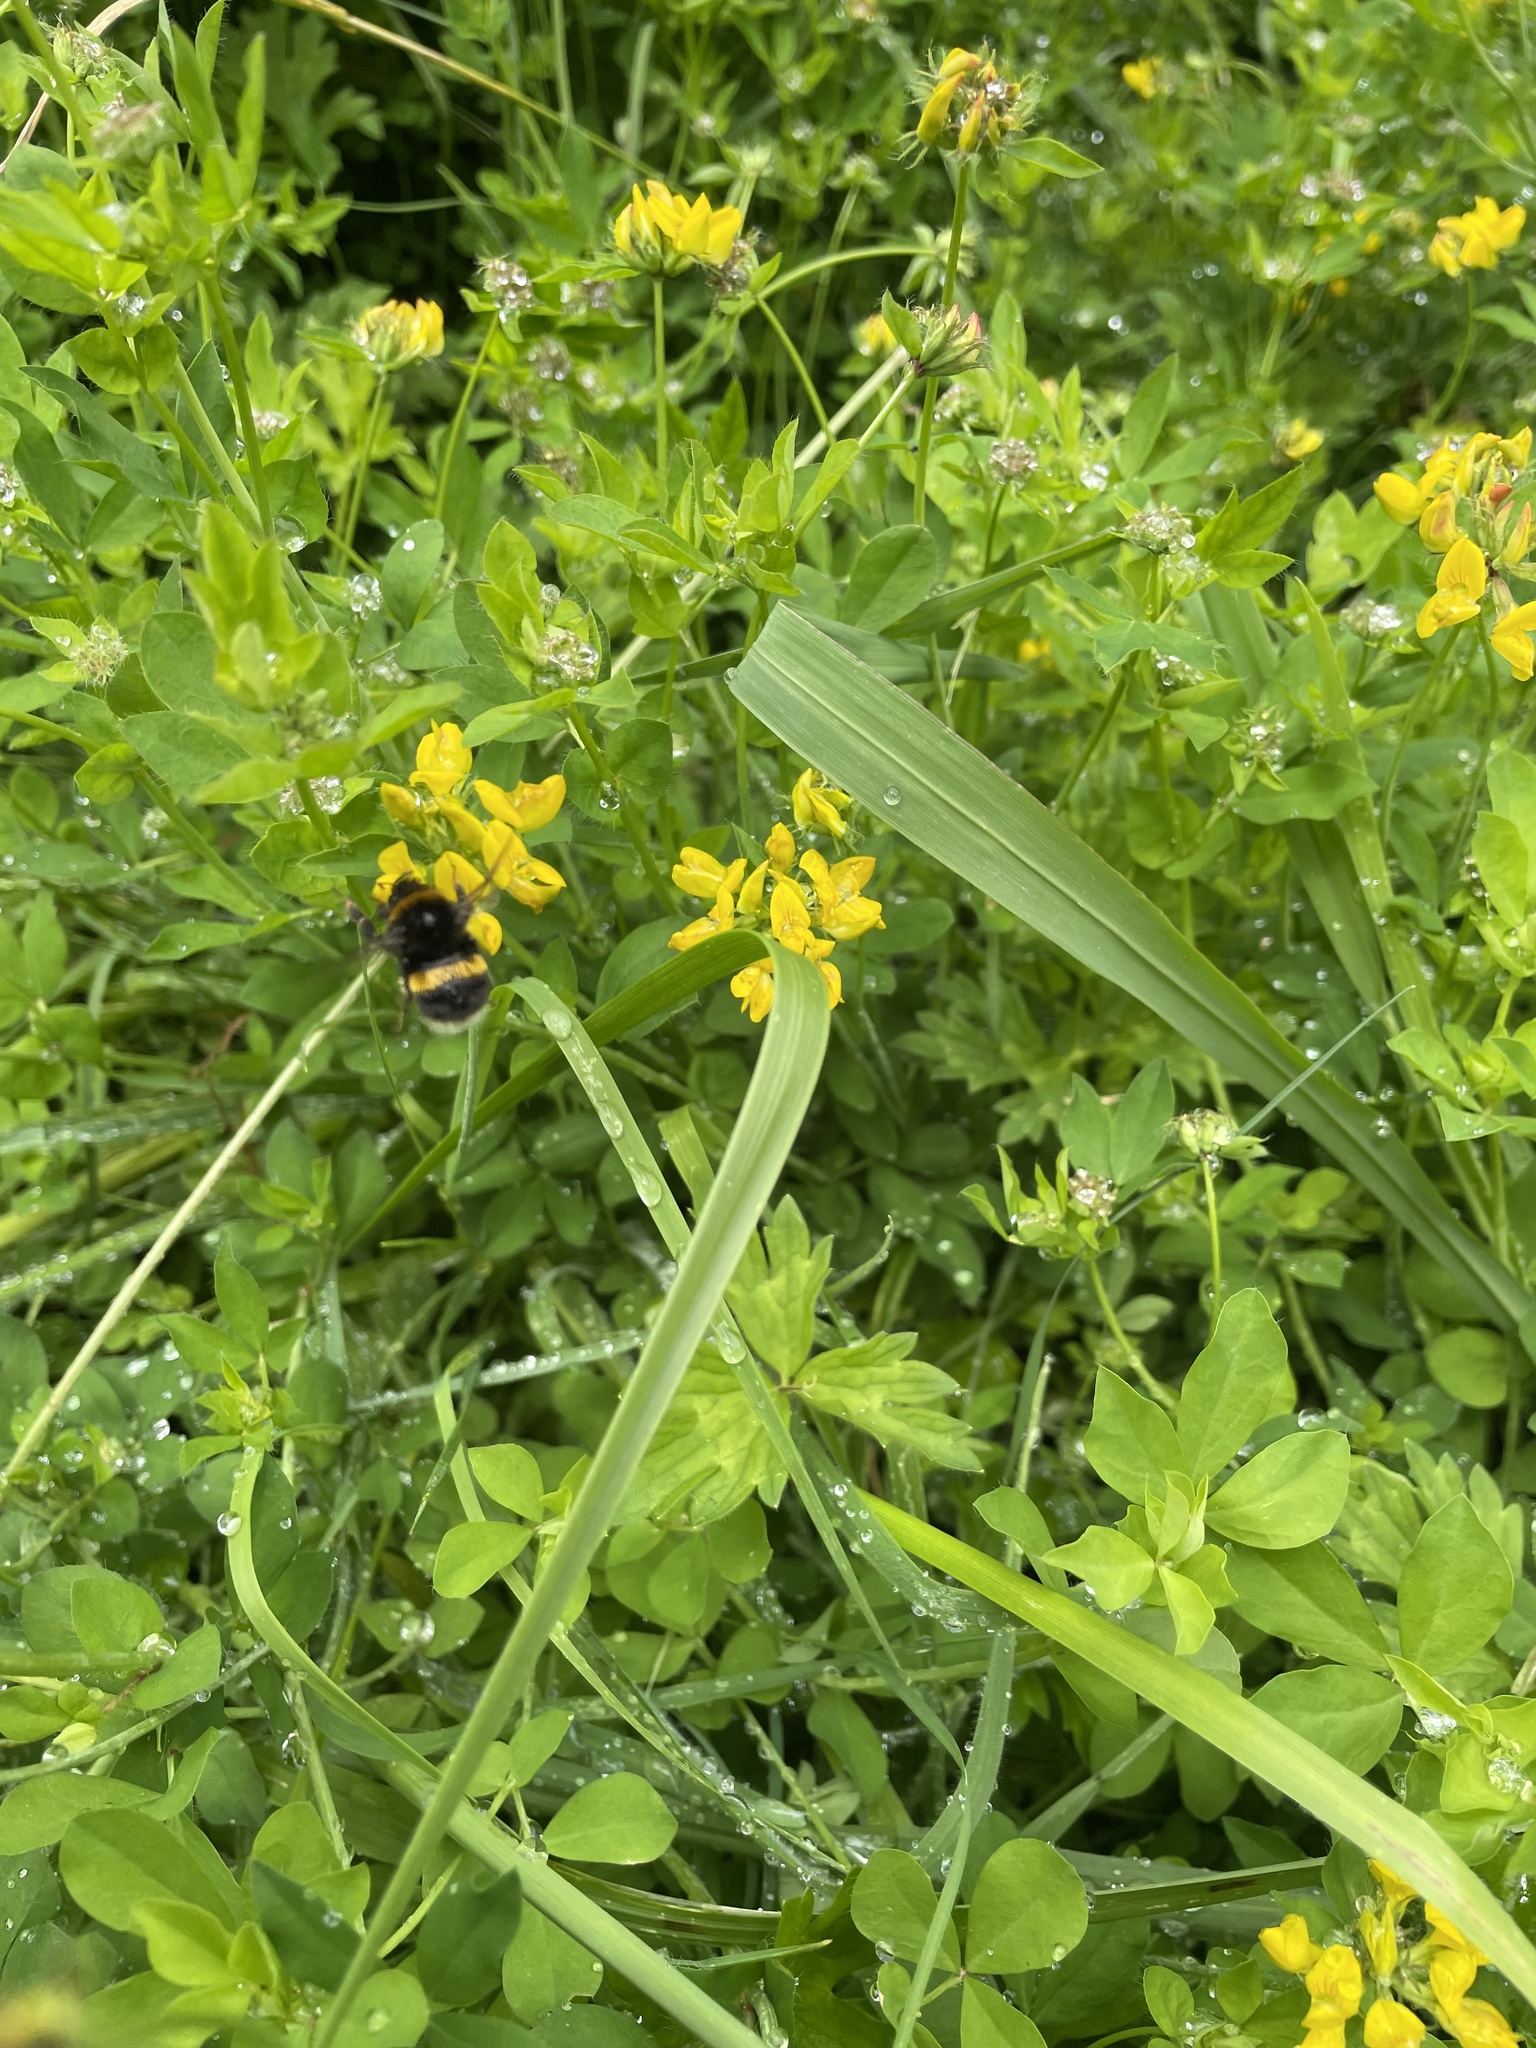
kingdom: Plantae
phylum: Tracheophyta
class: Magnoliopsida
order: Fabales
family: Fabaceae
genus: Lotus
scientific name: Lotus pedunculatus
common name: Greater birdsfoot-trefoil
